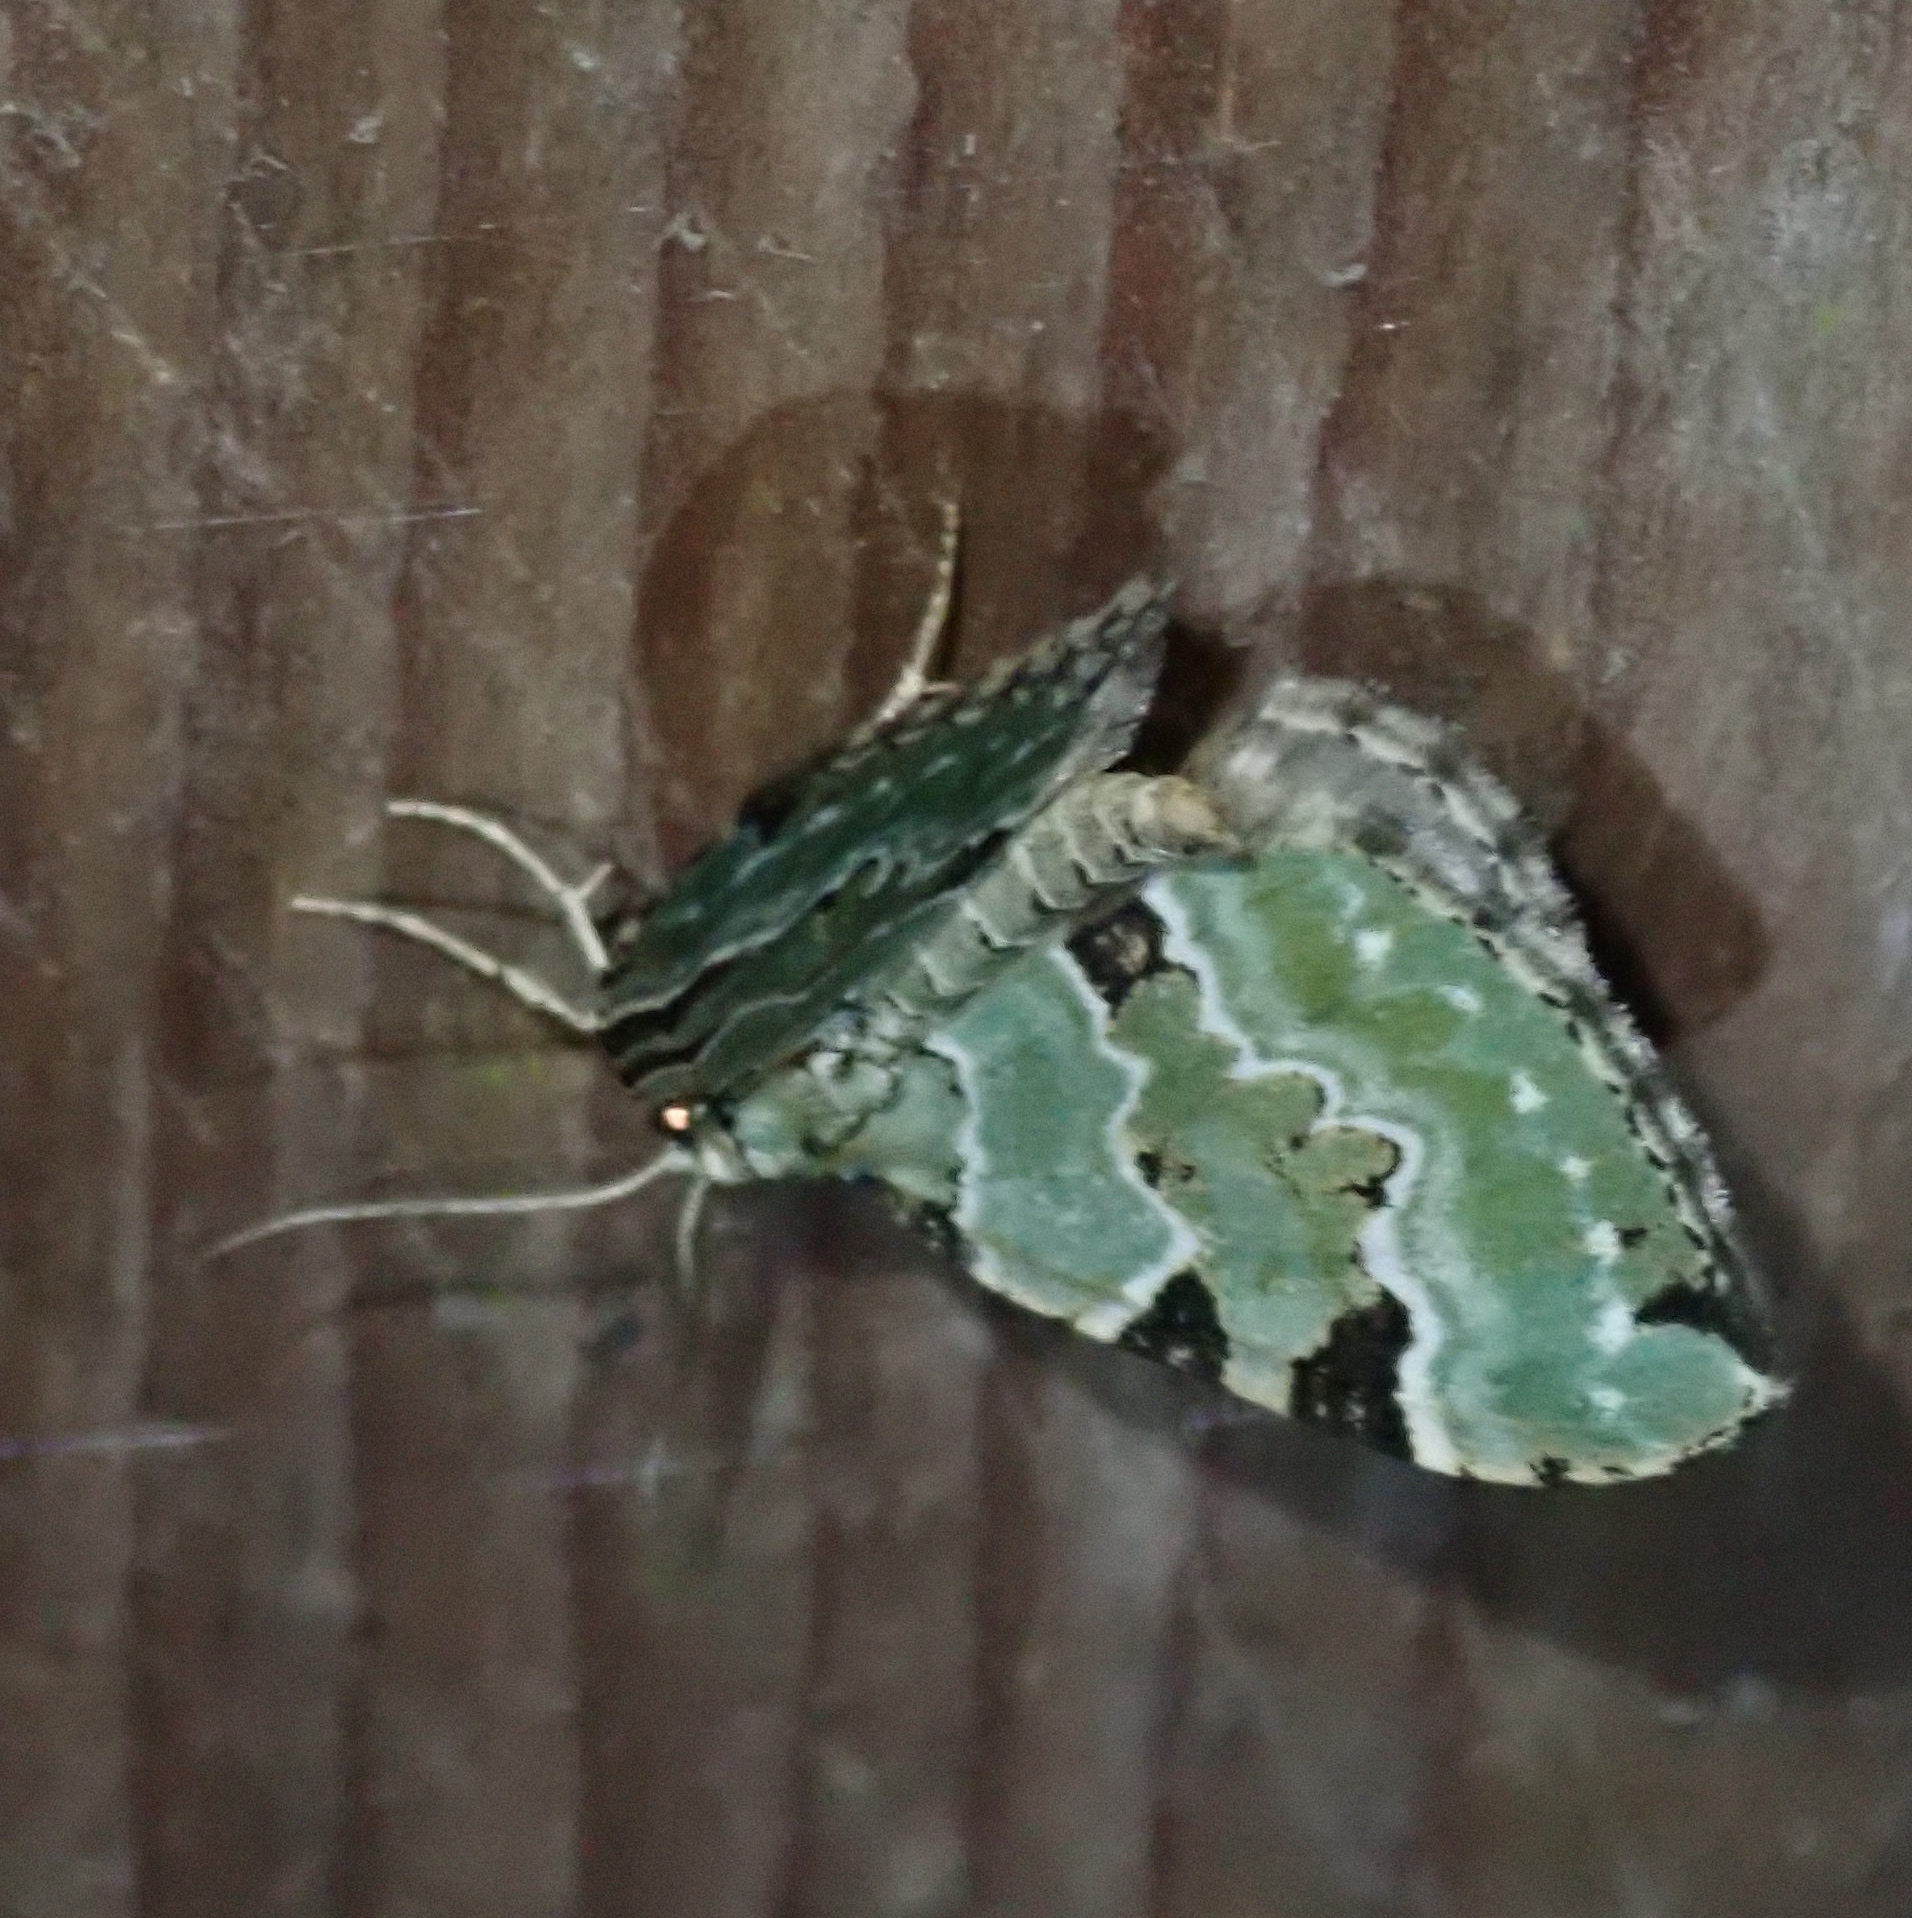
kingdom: Animalia
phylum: Arthropoda
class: Insecta
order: Lepidoptera
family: Geometridae
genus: Colostygia
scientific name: Colostygia pectinataria
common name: Green carpet
